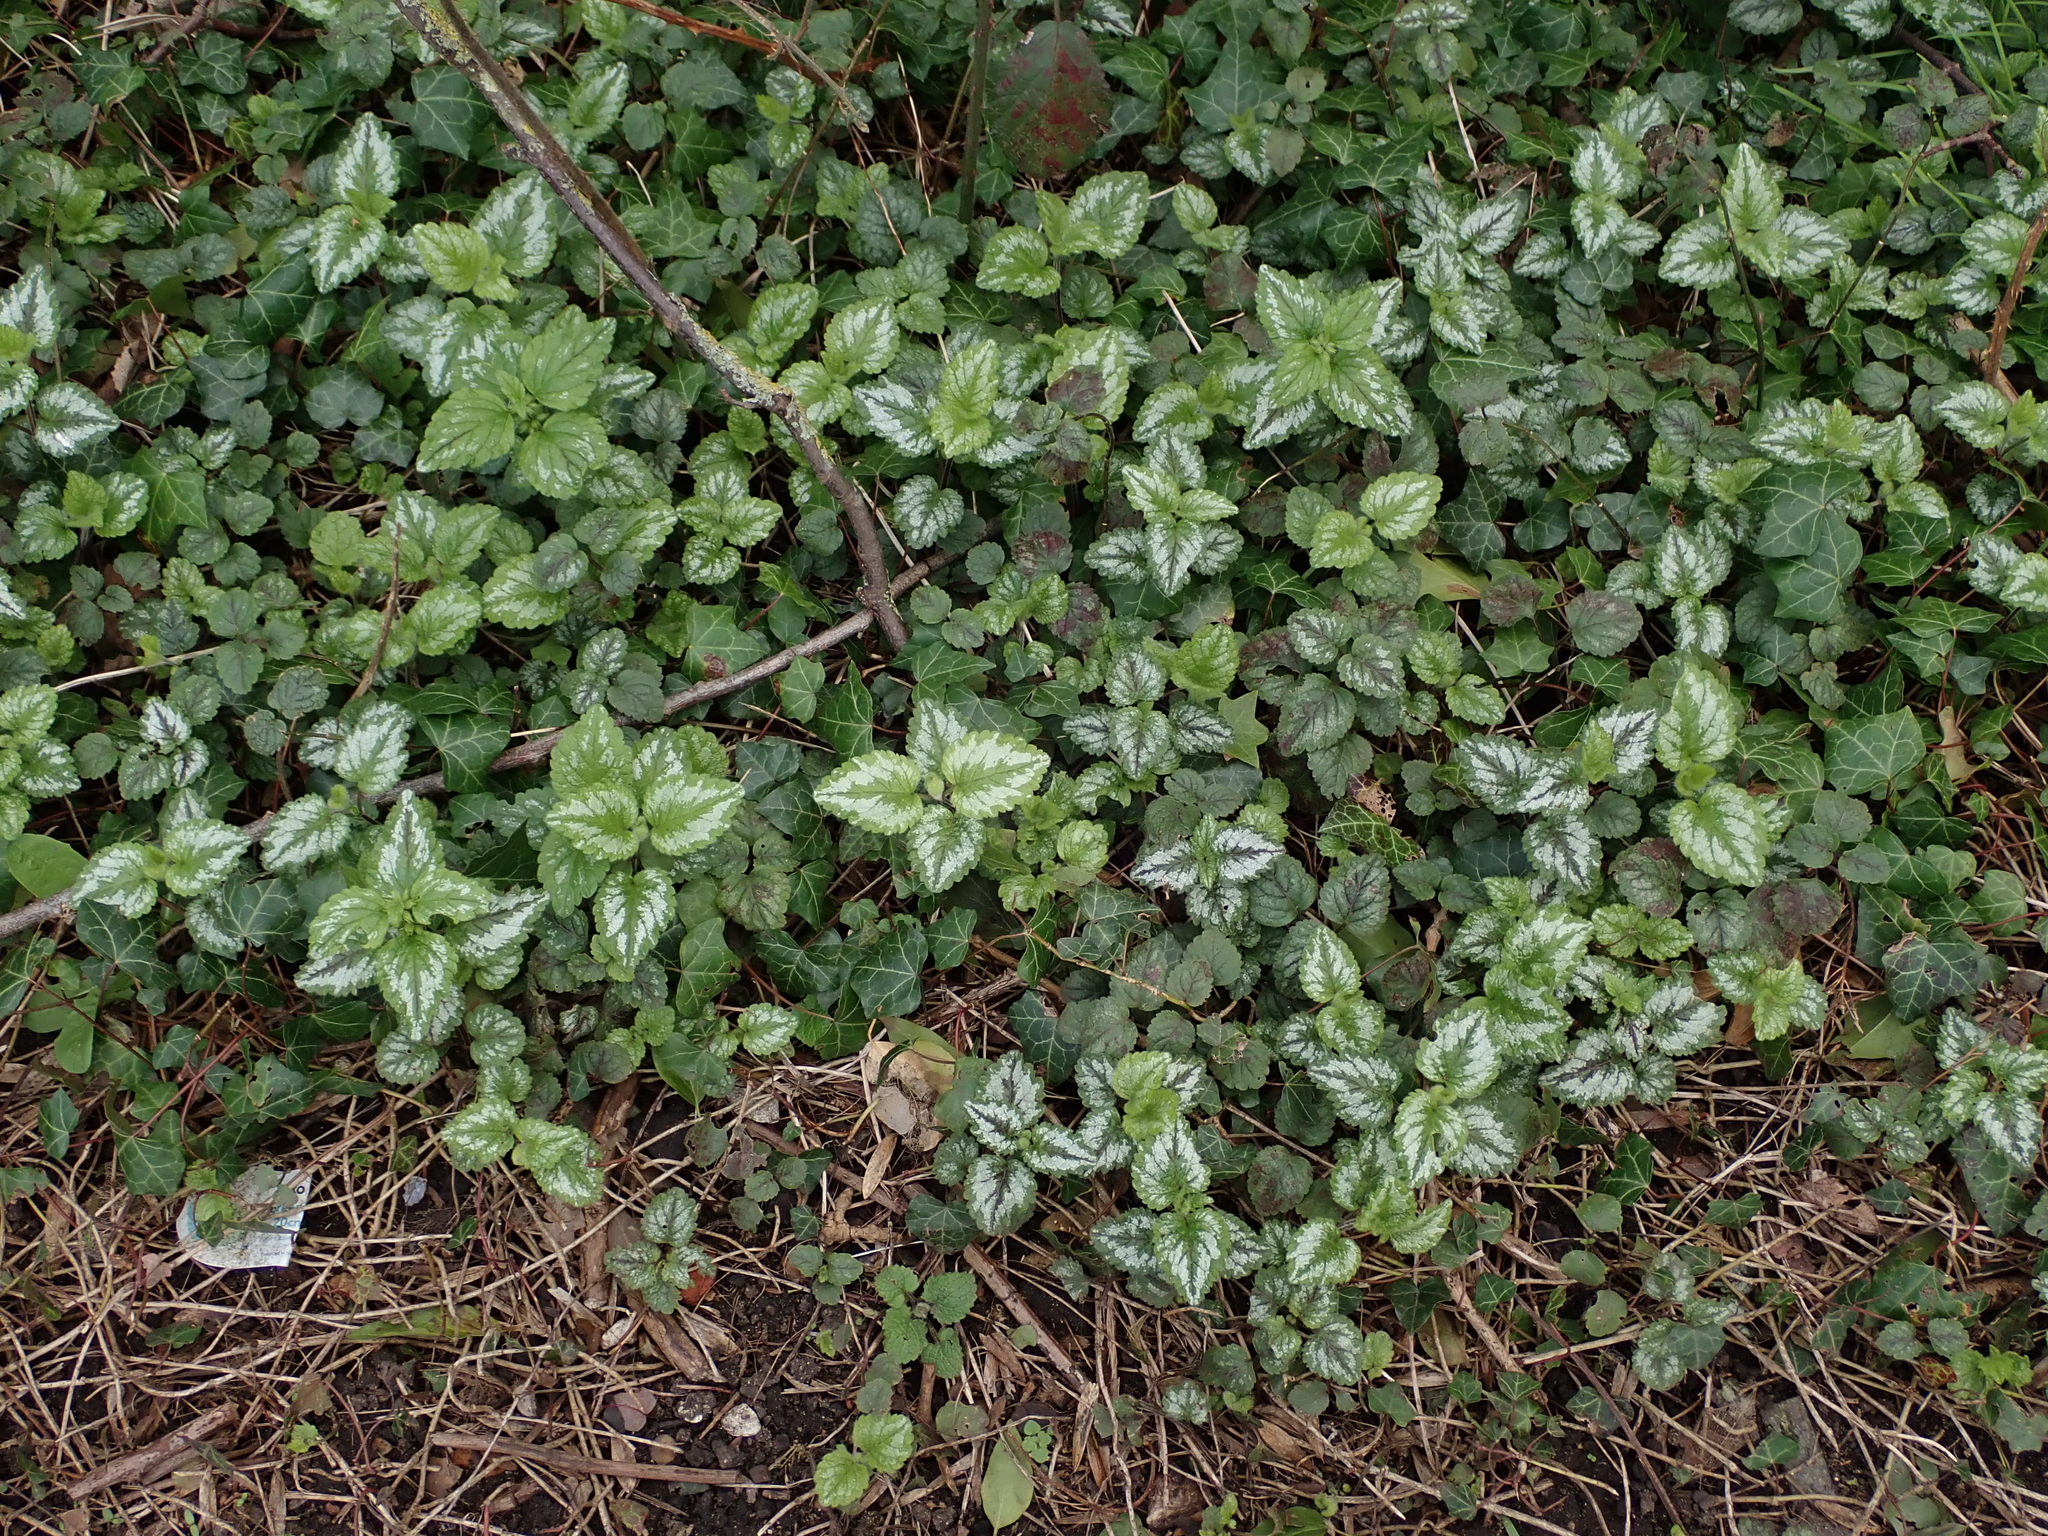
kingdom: Plantae
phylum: Tracheophyta
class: Magnoliopsida
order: Lamiales
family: Lamiaceae
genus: Lamium
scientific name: Lamium galeobdolon
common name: Yellow archangel
